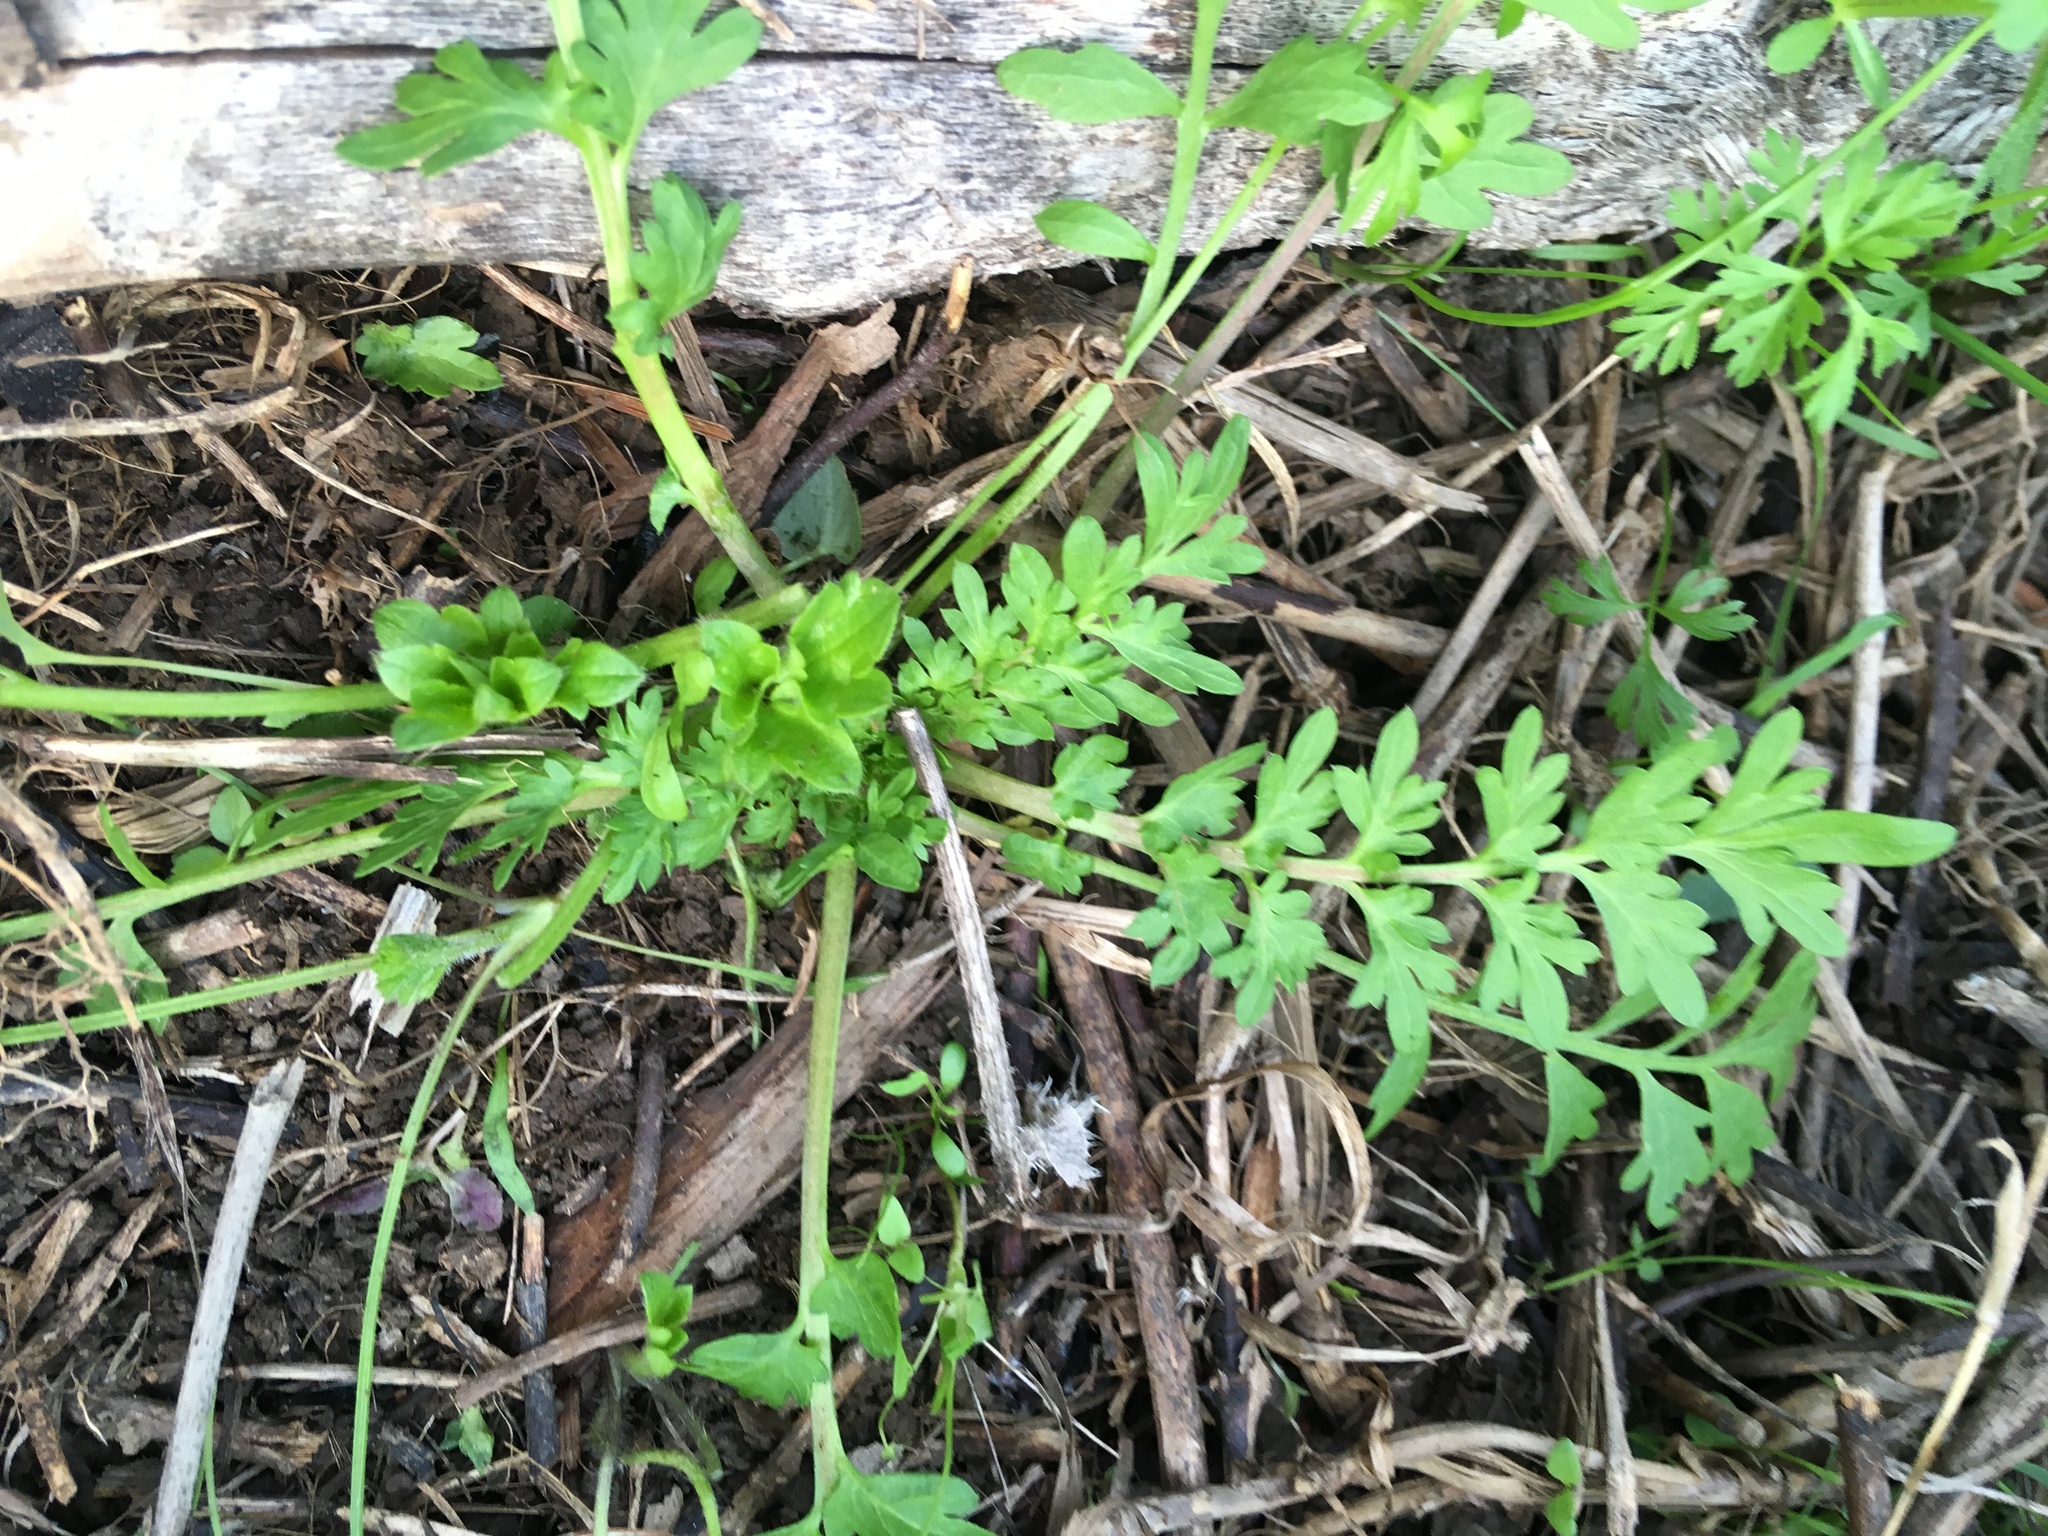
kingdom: Plantae
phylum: Tracheophyta
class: Magnoliopsida
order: Apiales
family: Apiaceae
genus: Daucus
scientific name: Daucus carota
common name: Wild carrot
